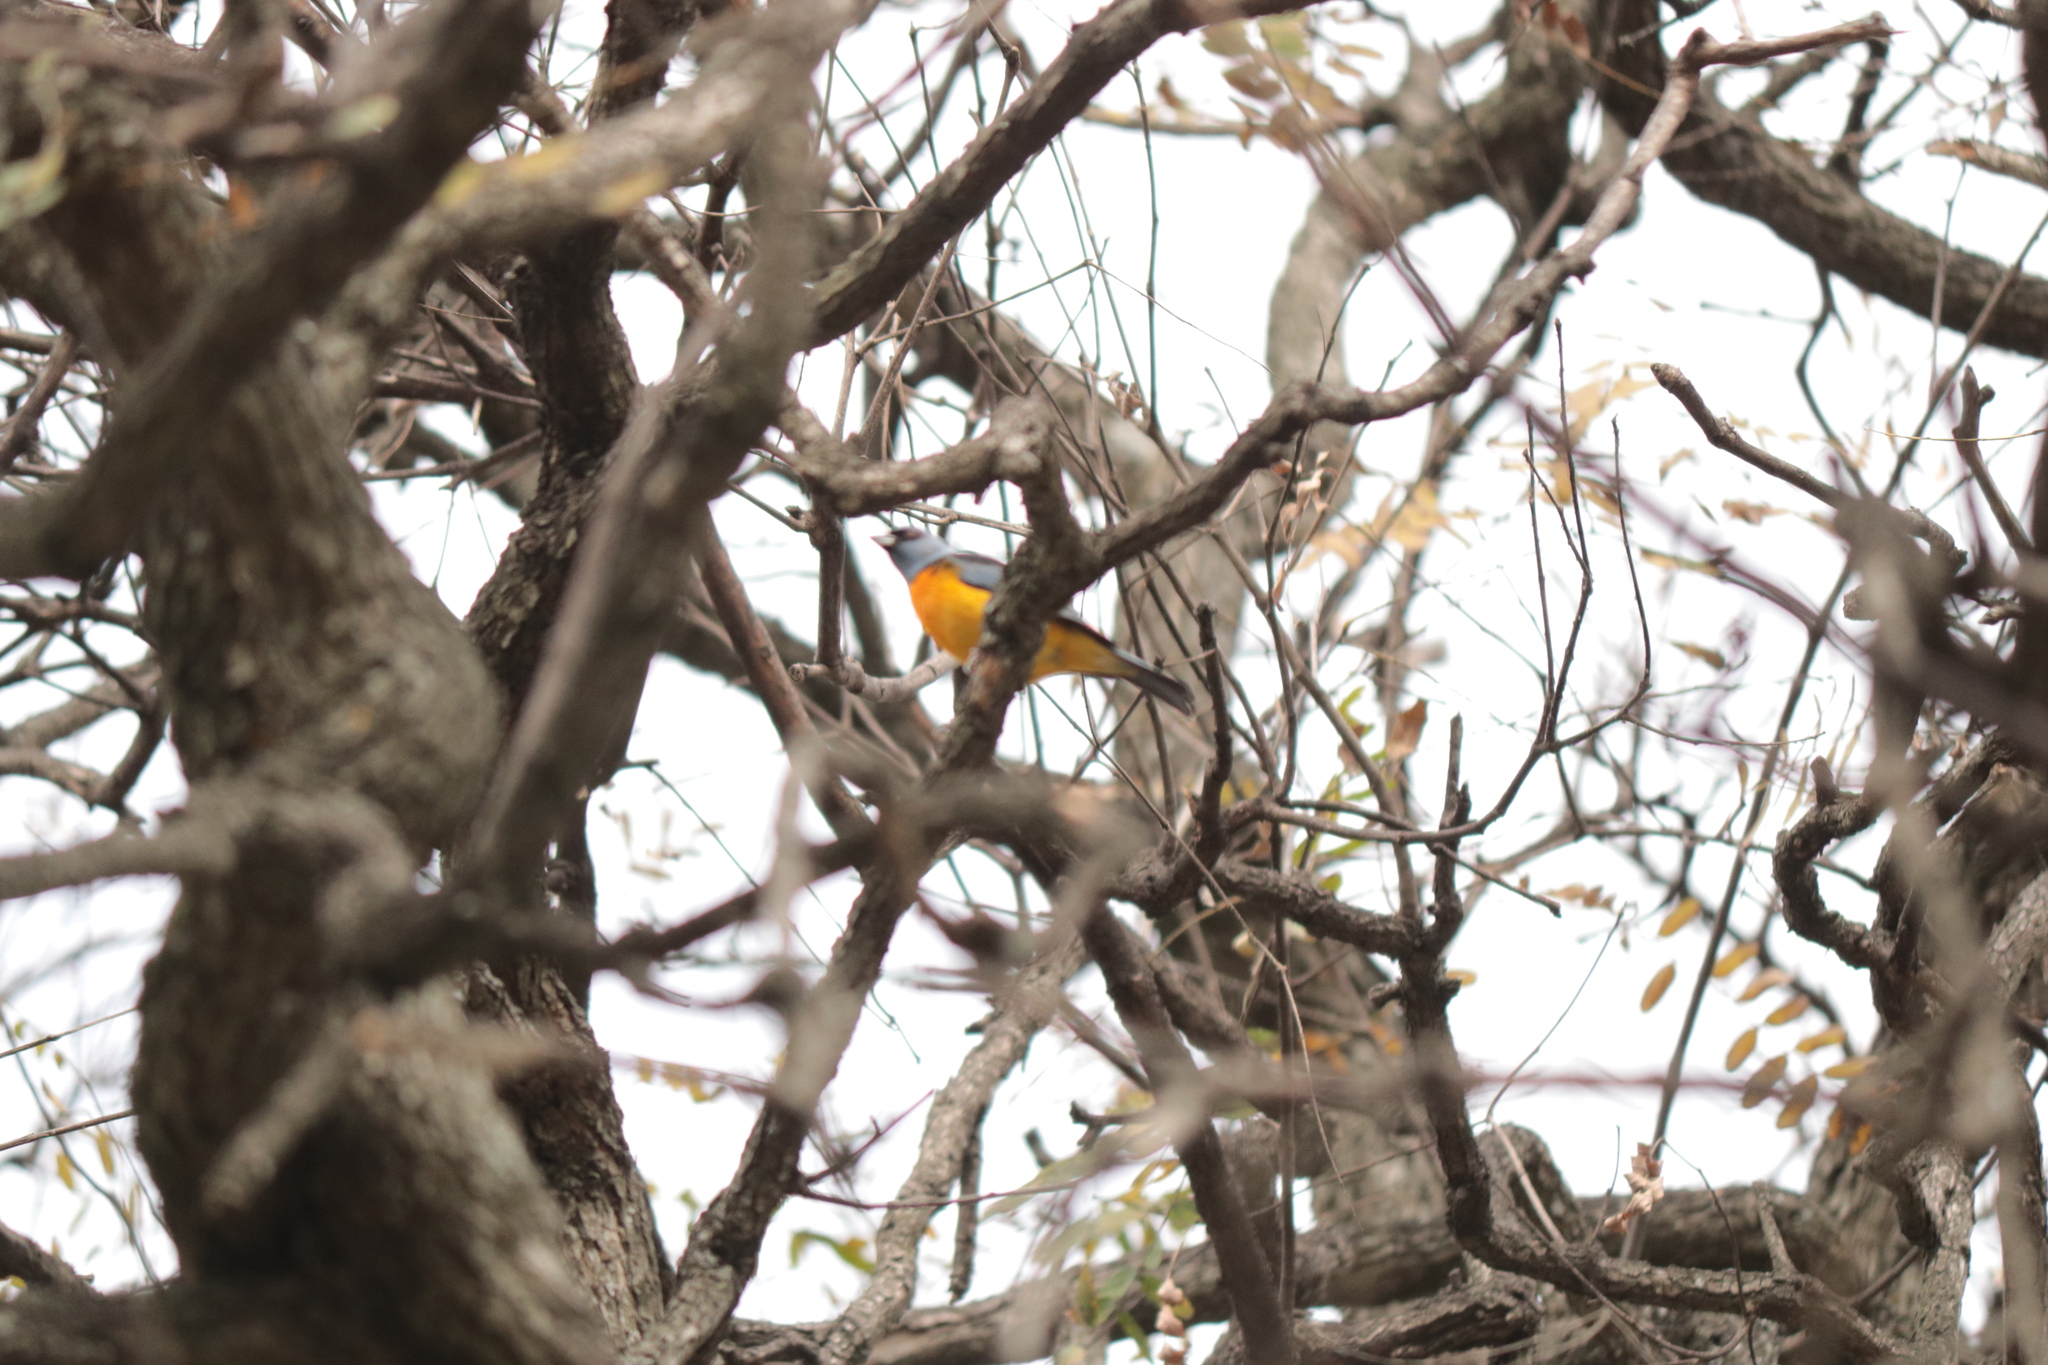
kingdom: Animalia
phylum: Chordata
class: Aves
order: Passeriformes
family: Thraupidae
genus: Rauenia
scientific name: Rauenia bonariensis
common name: Blue-and-yellow tanager
